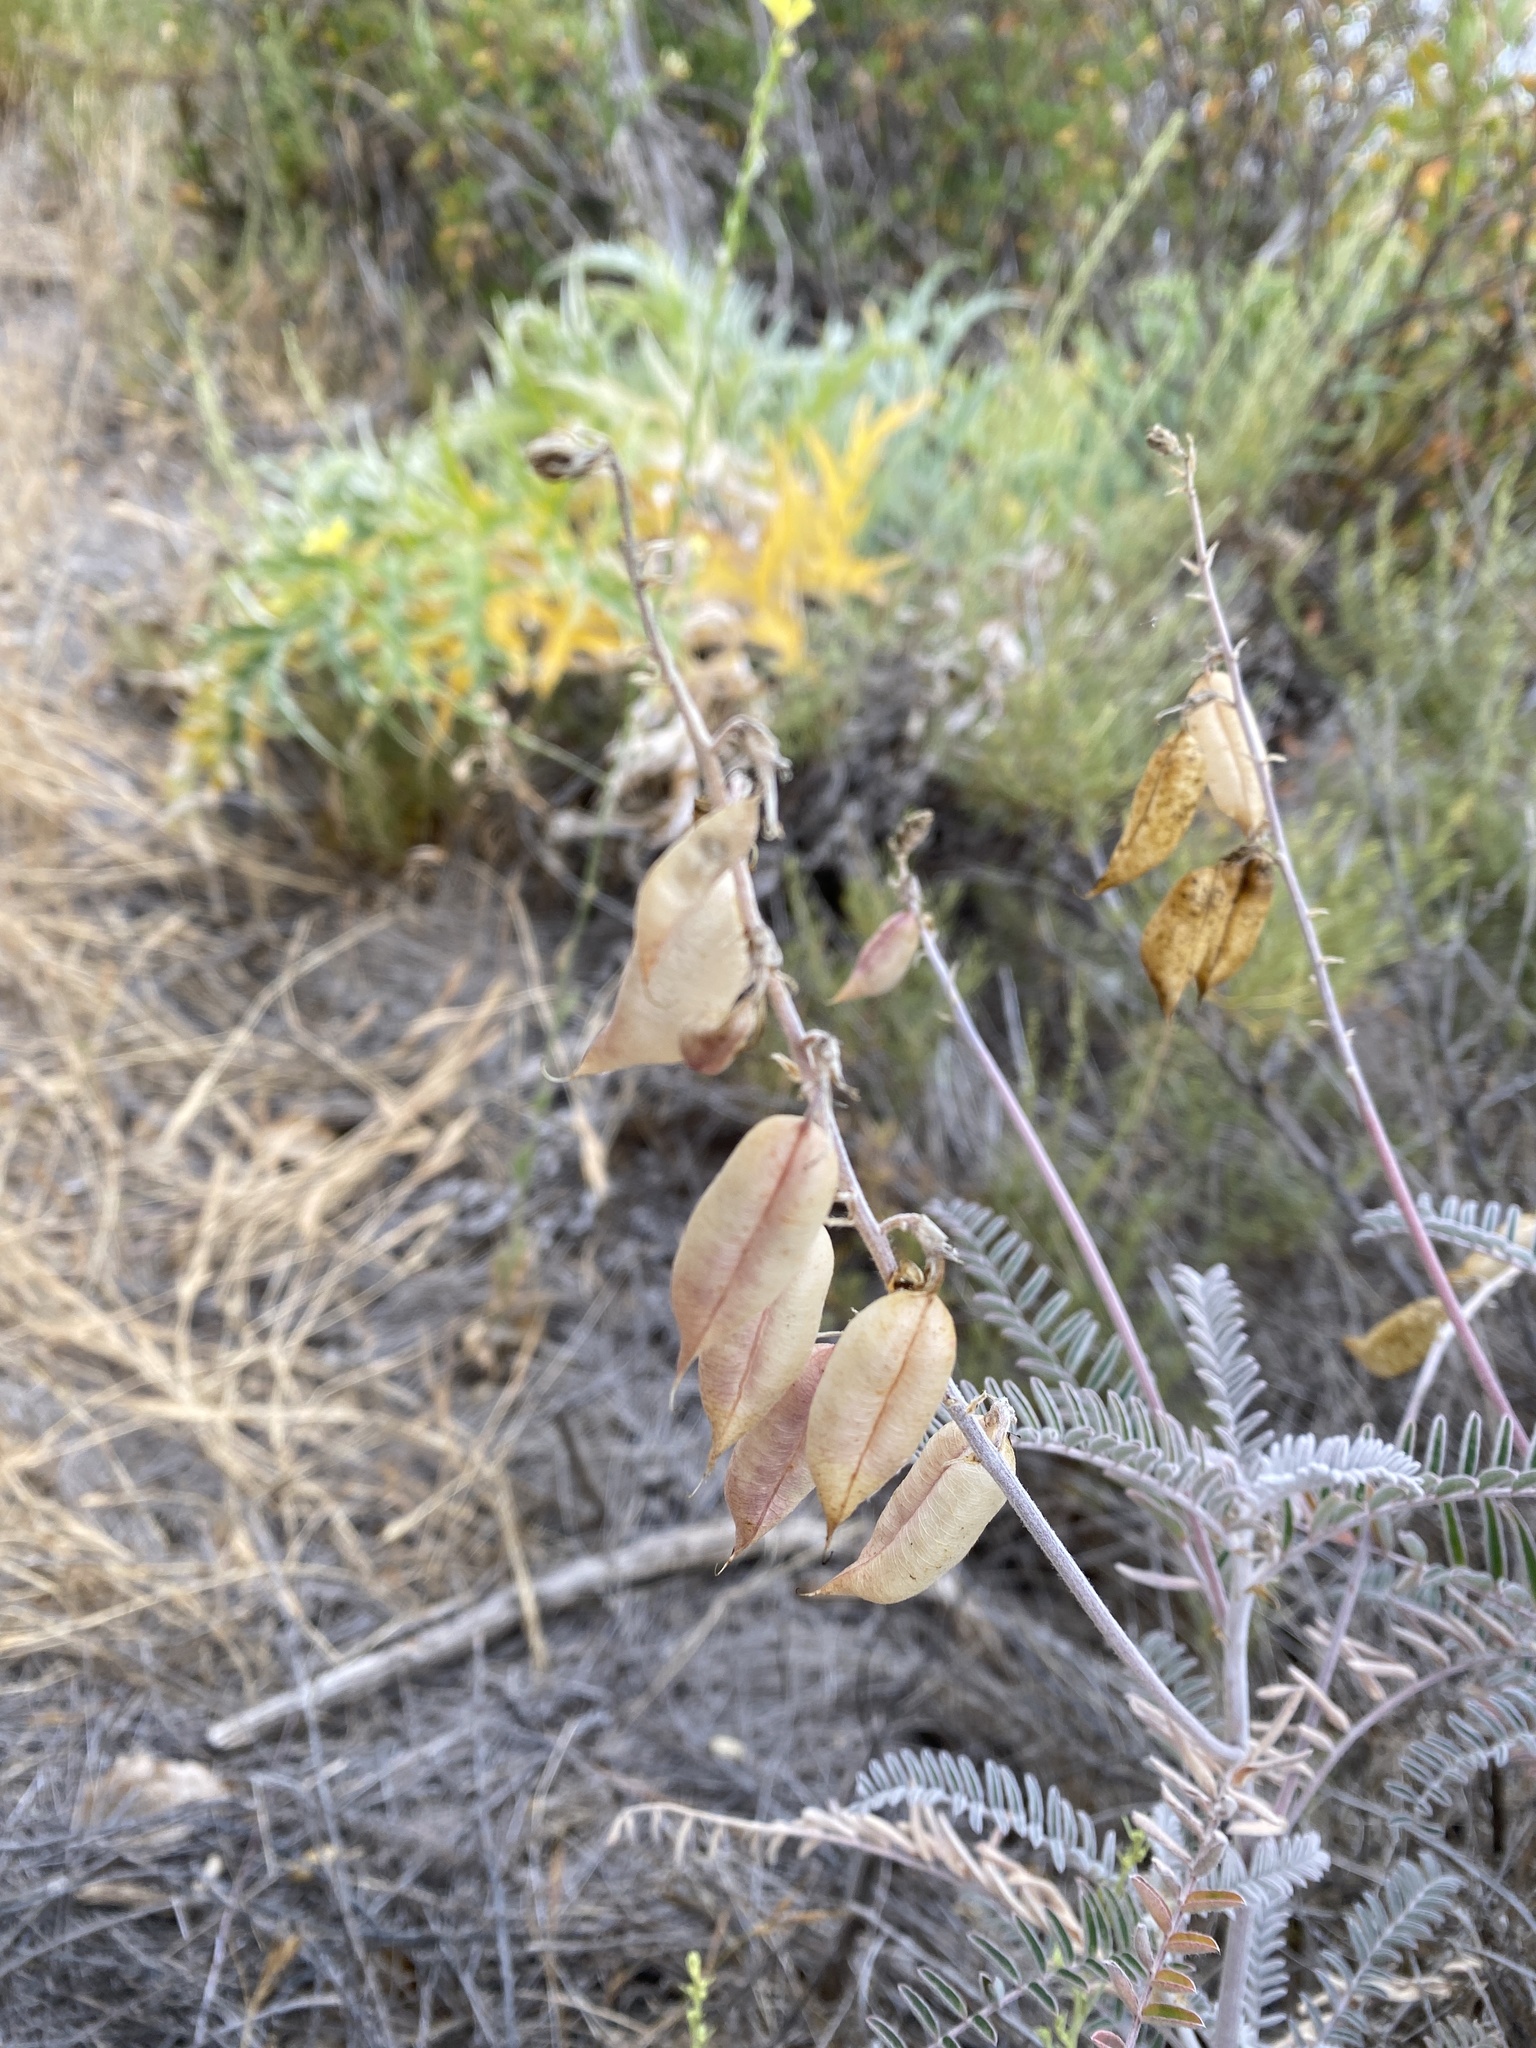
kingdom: Plantae
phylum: Tracheophyta
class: Magnoliopsida
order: Fabales
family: Fabaceae
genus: Astragalus
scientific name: Astragalus trichopodus
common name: Santa barbara milk-vetch
